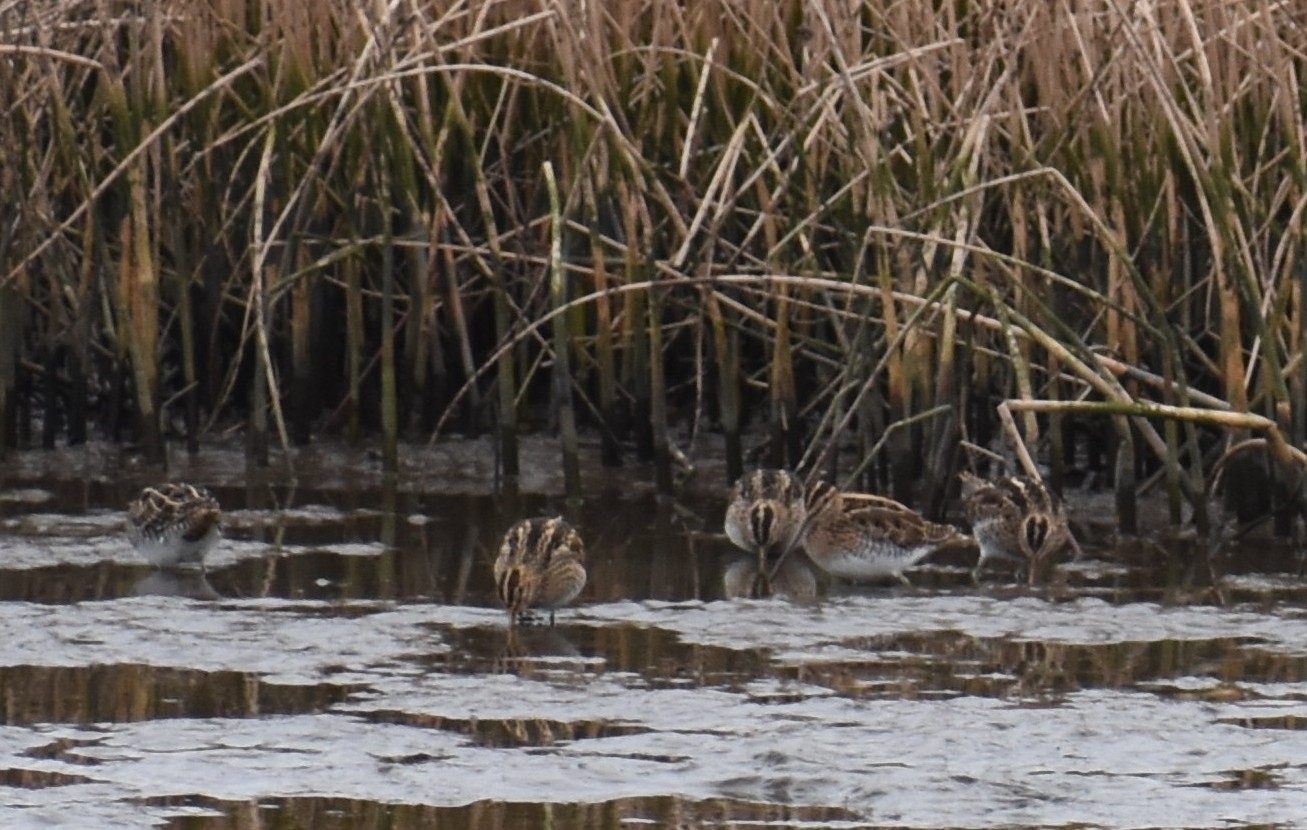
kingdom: Animalia
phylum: Chordata
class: Aves
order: Charadriiformes
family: Scolopacidae
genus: Gallinago
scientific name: Gallinago gallinago
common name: Common snipe
